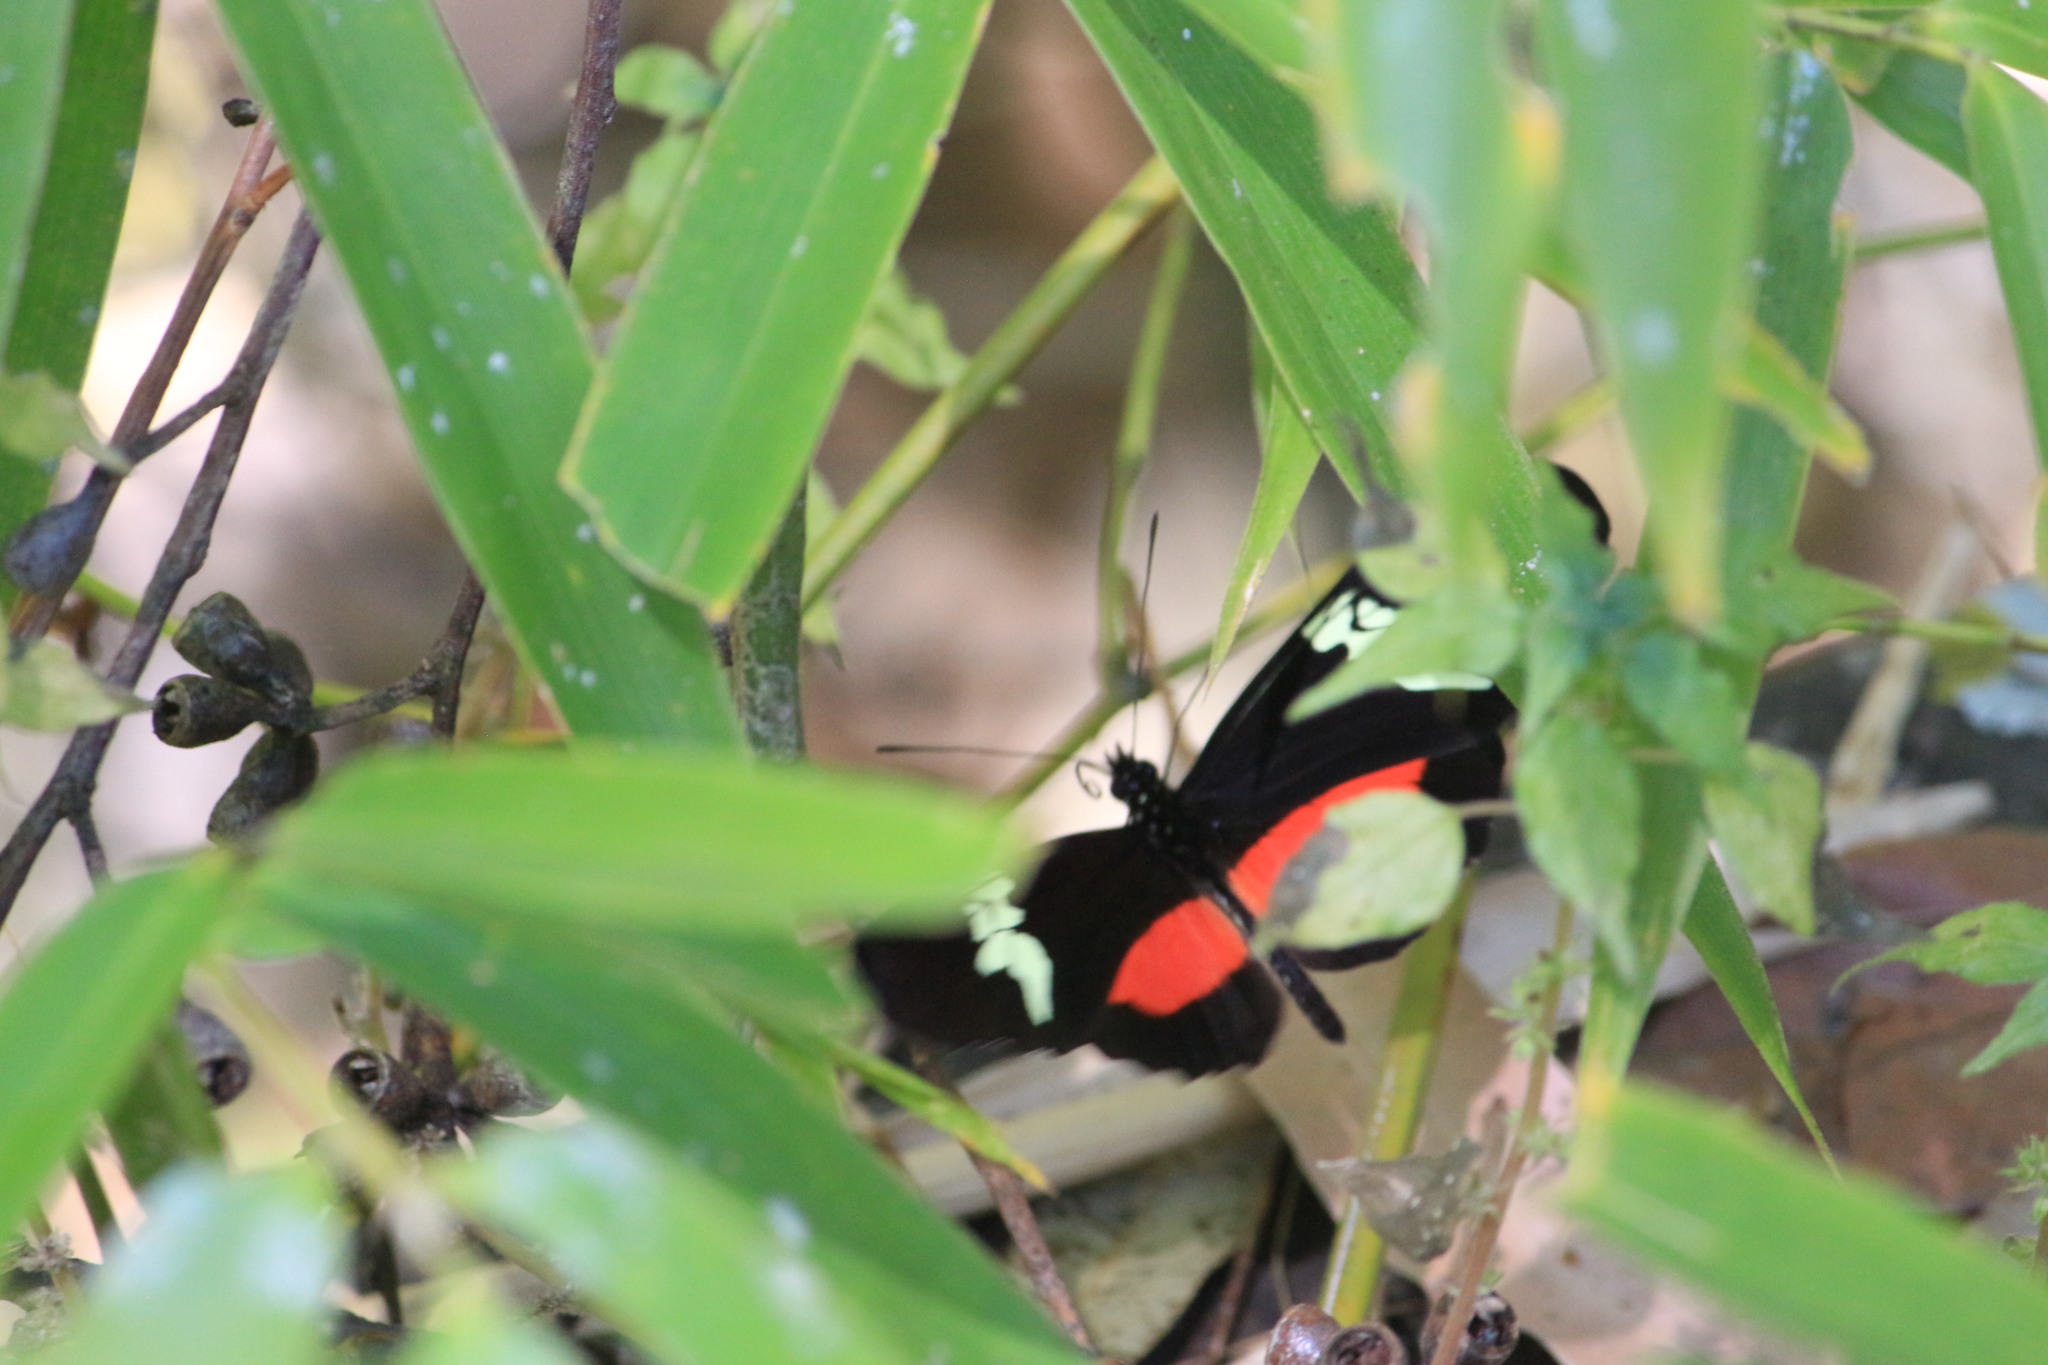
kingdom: Animalia
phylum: Arthropoda
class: Insecta
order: Lepidoptera
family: Nymphalidae
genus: Heliconius
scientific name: Heliconius hortense
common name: Mexican longwing
